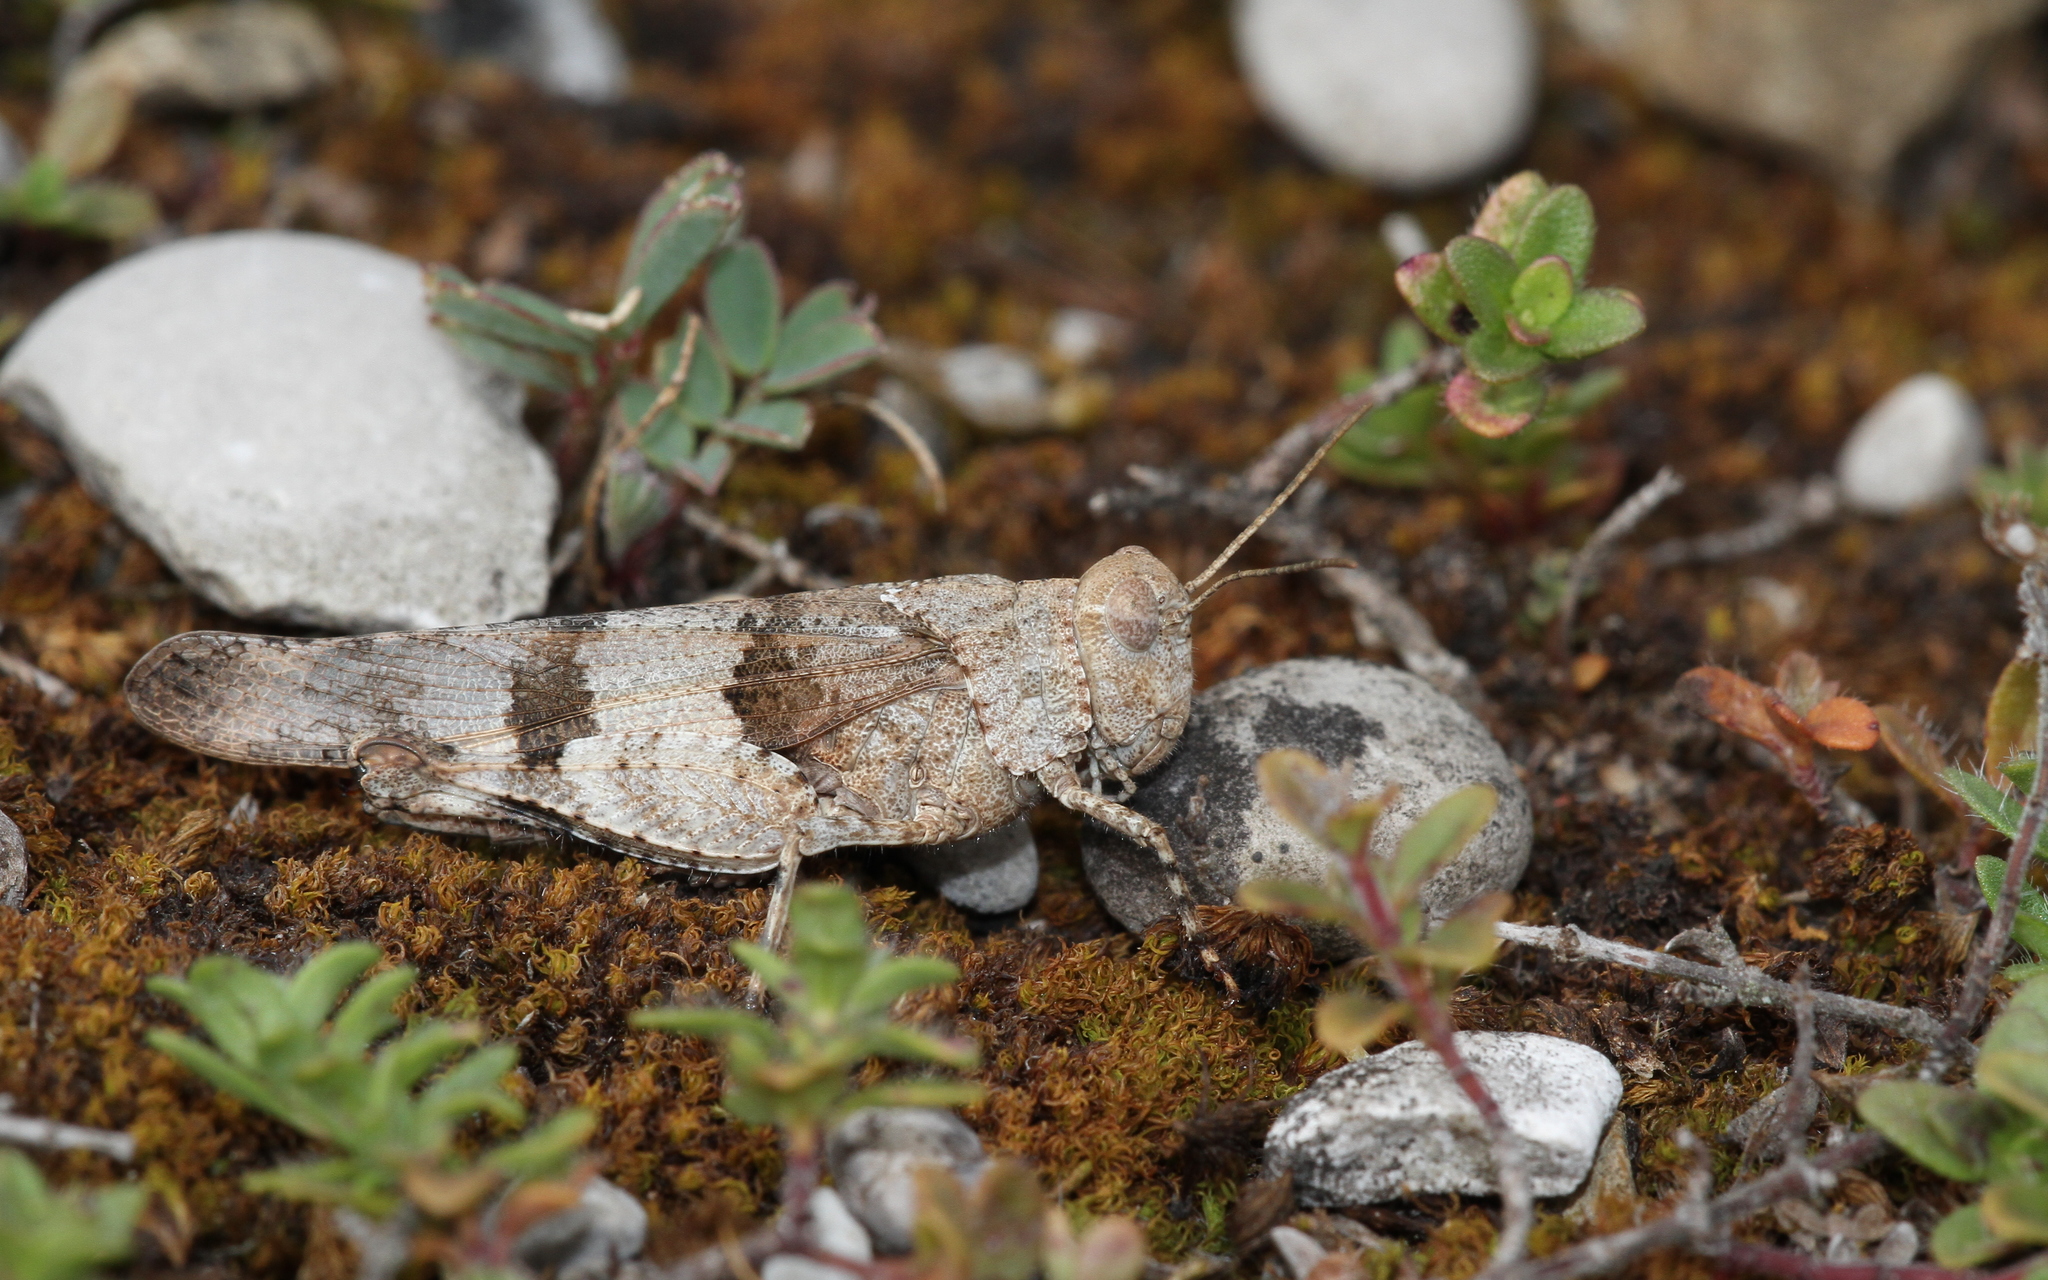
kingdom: Animalia
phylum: Arthropoda
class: Insecta
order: Orthoptera
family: Acrididae
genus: Oedipoda
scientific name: Oedipoda caerulescens
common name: Blue-winged grasshopper
